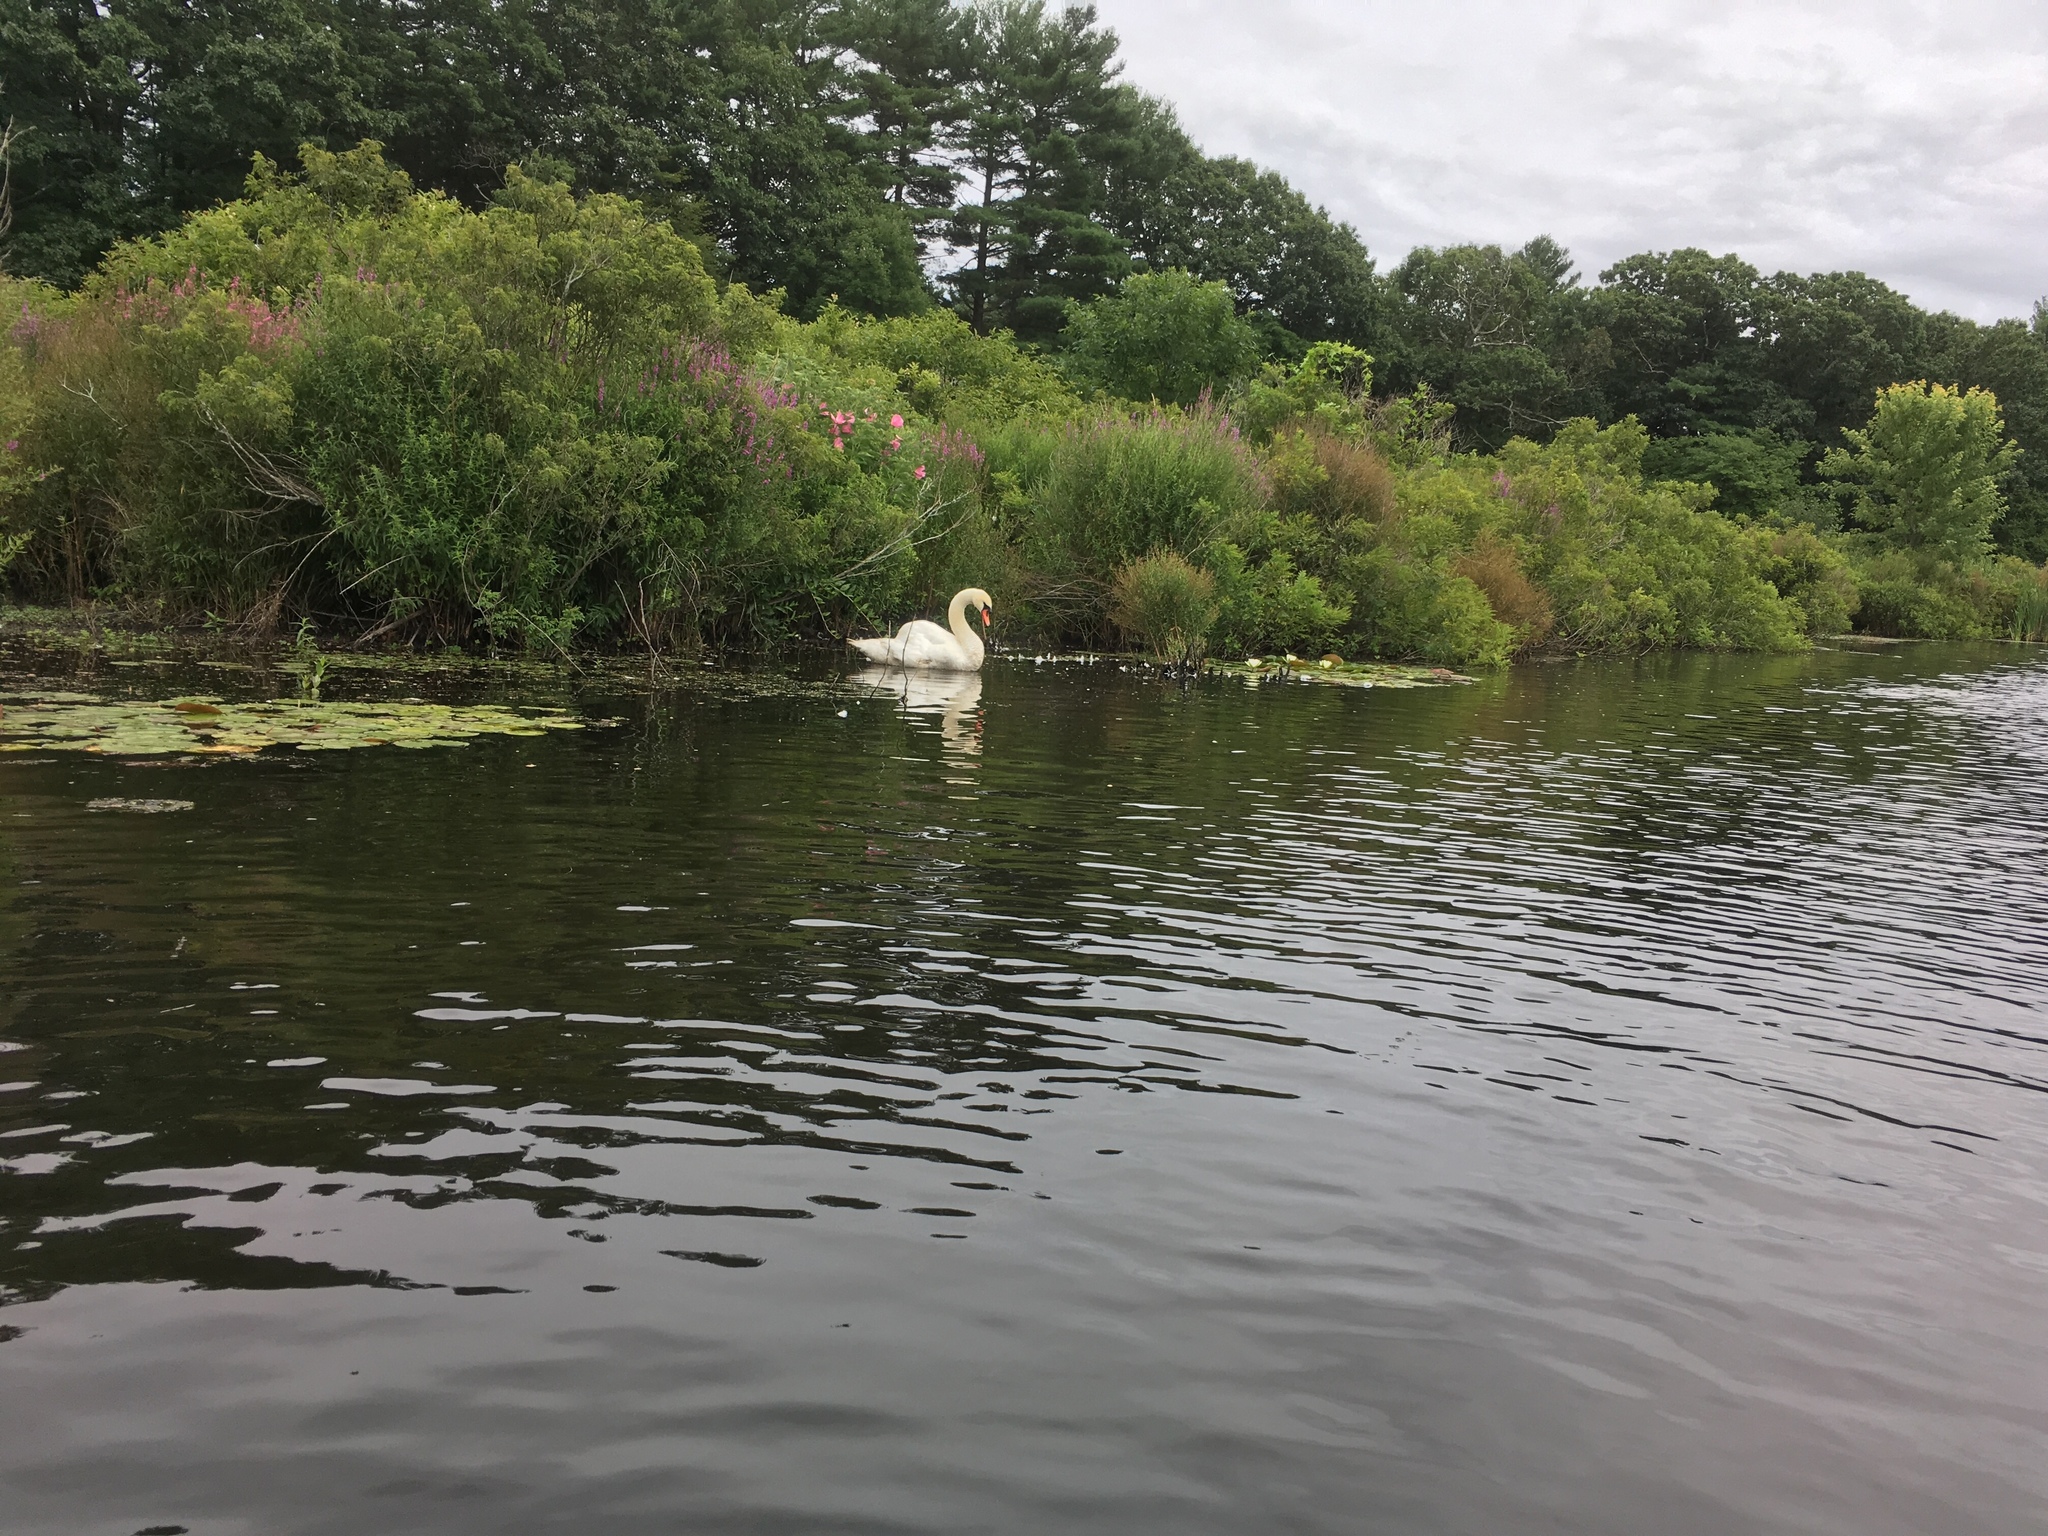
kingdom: Animalia
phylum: Chordata
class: Aves
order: Anseriformes
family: Anatidae
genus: Cygnus
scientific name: Cygnus olor
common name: Mute swan
